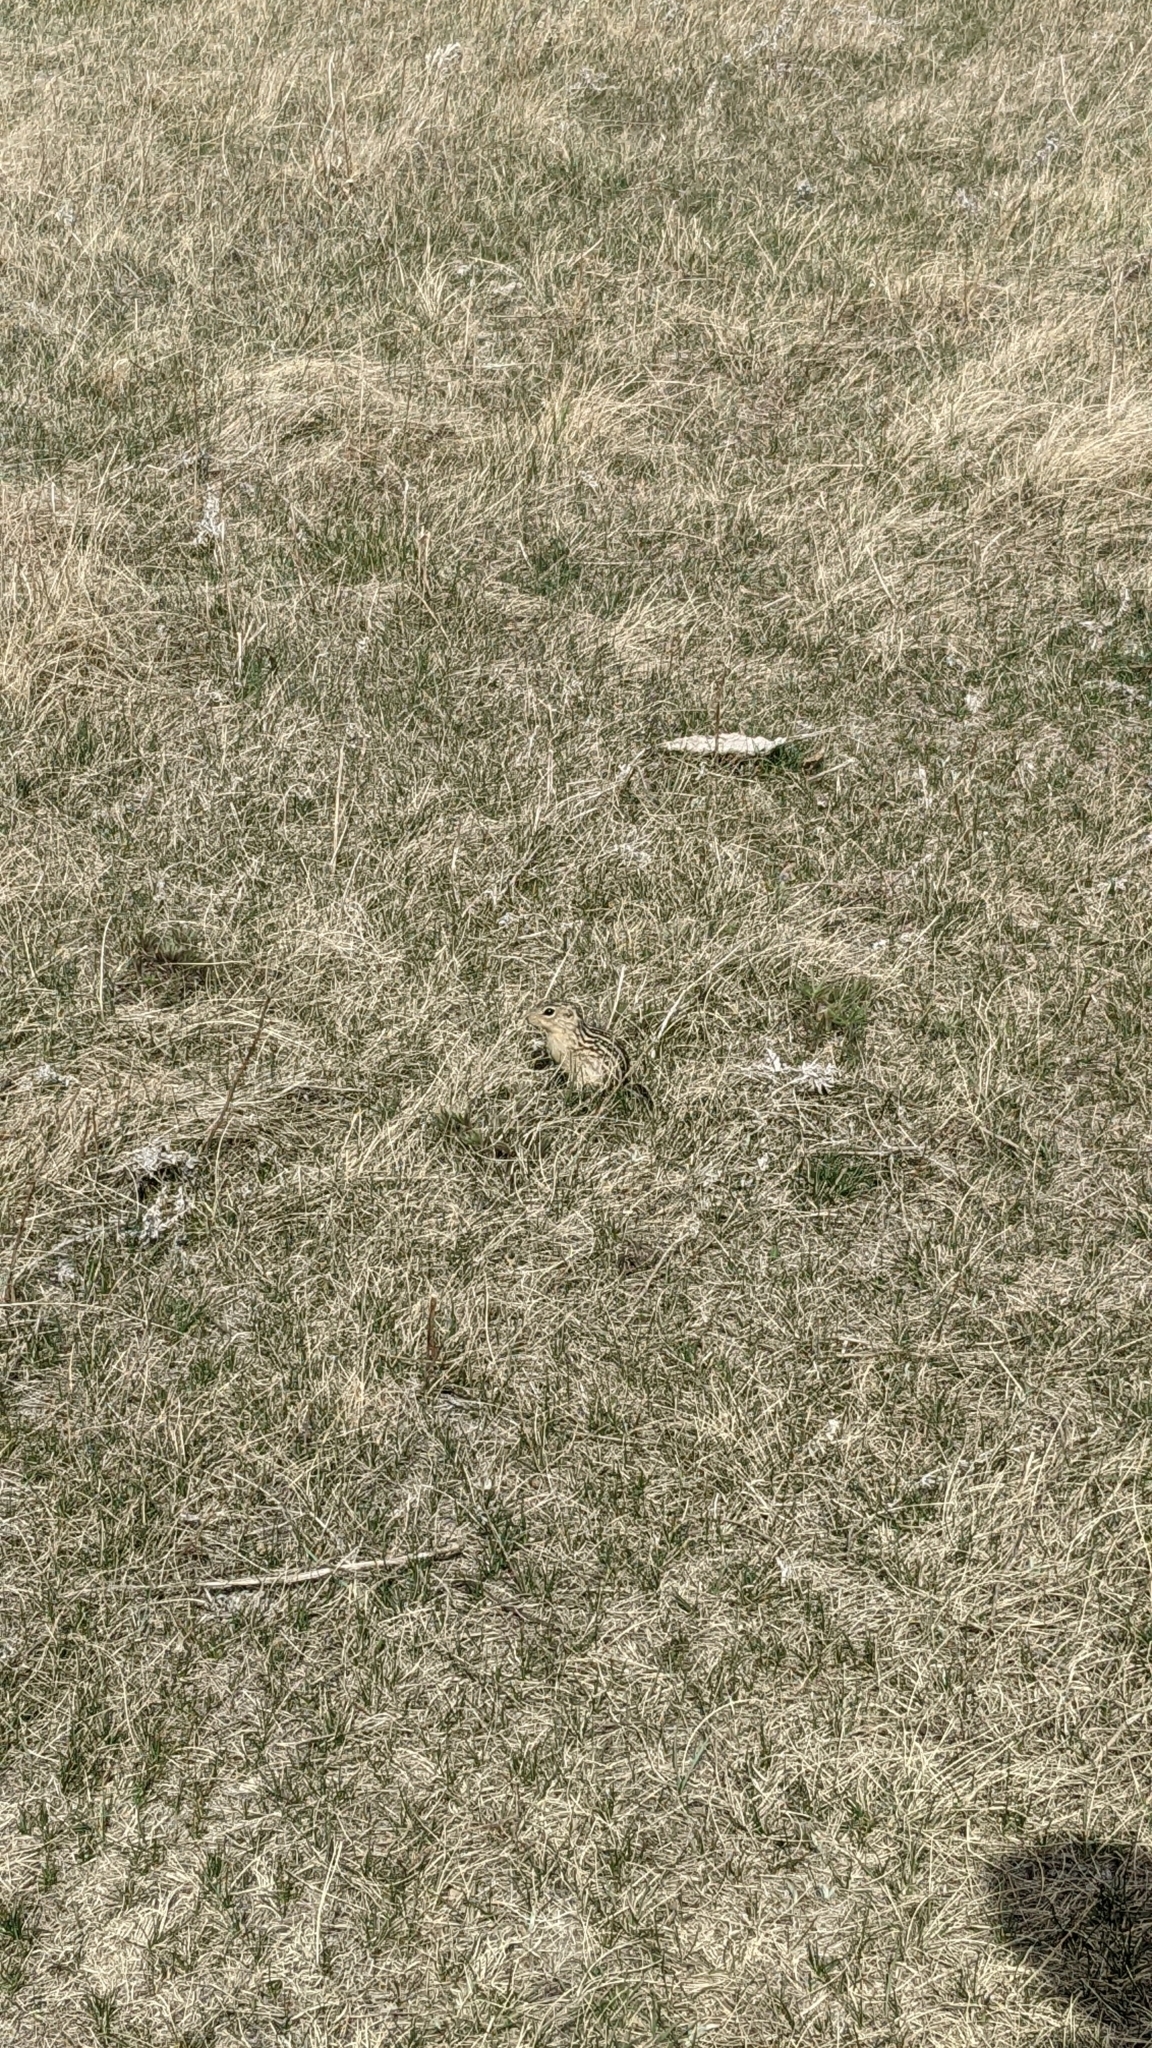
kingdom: Animalia
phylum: Chordata
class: Mammalia
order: Rodentia
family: Sciuridae
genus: Ictidomys
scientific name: Ictidomys tridecemlineatus
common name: Thirteen-lined ground squirrel
